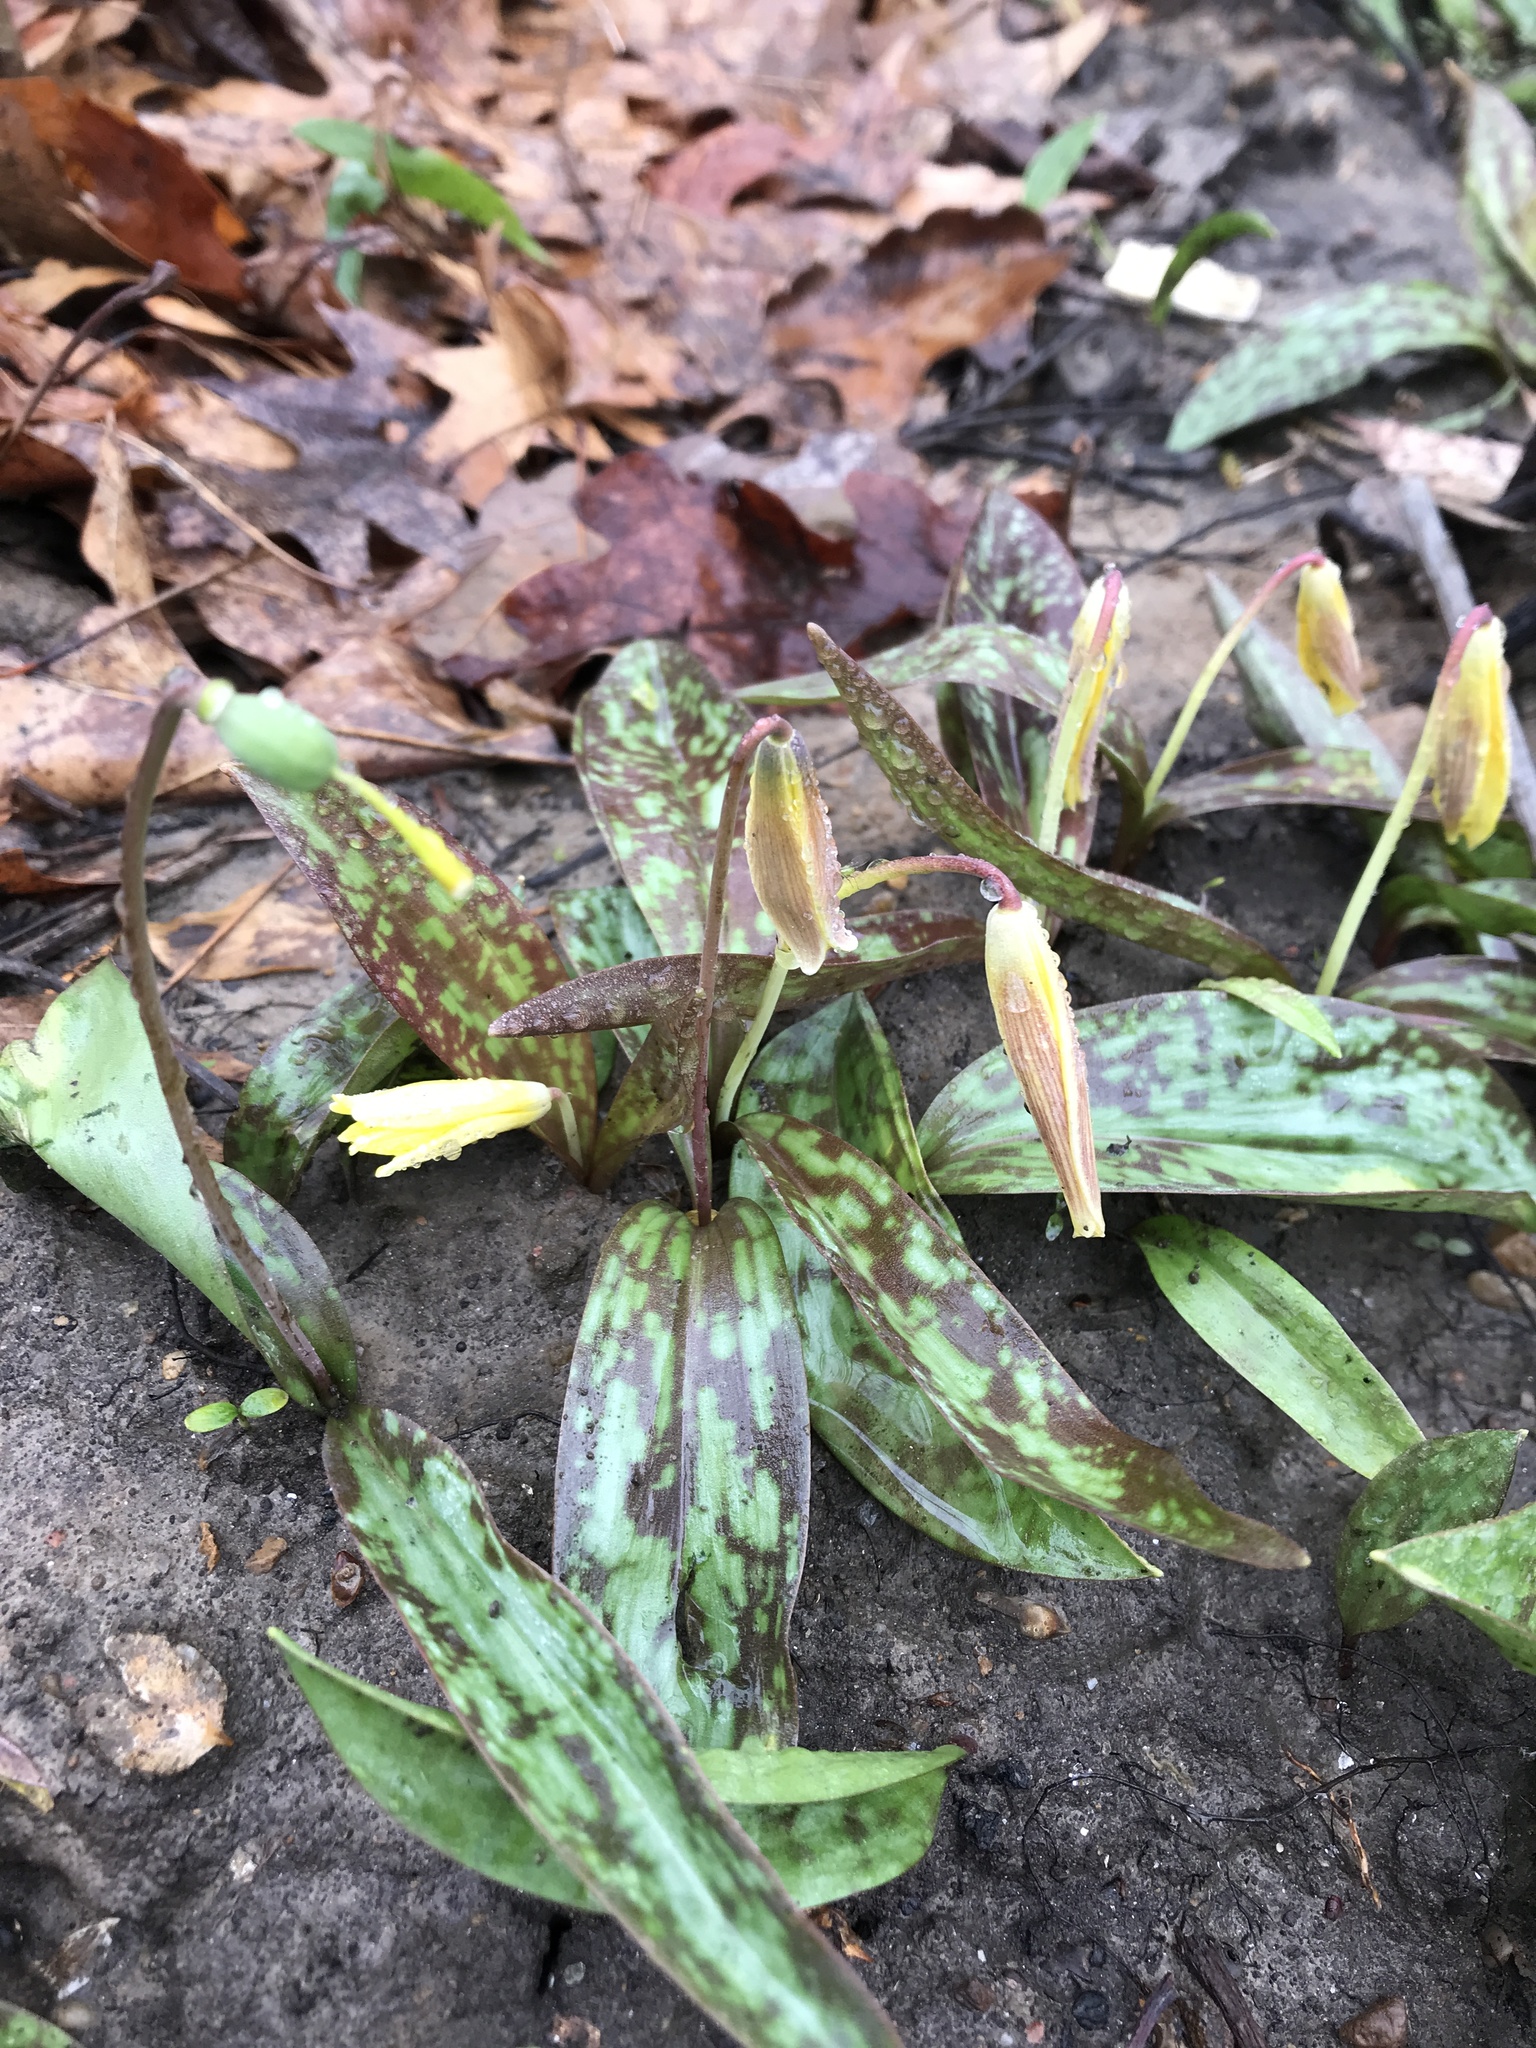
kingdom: Plantae
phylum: Tracheophyta
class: Liliopsida
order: Liliales
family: Liliaceae
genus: Erythronium
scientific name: Erythronium americanum
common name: Yellow adder's-tongue
